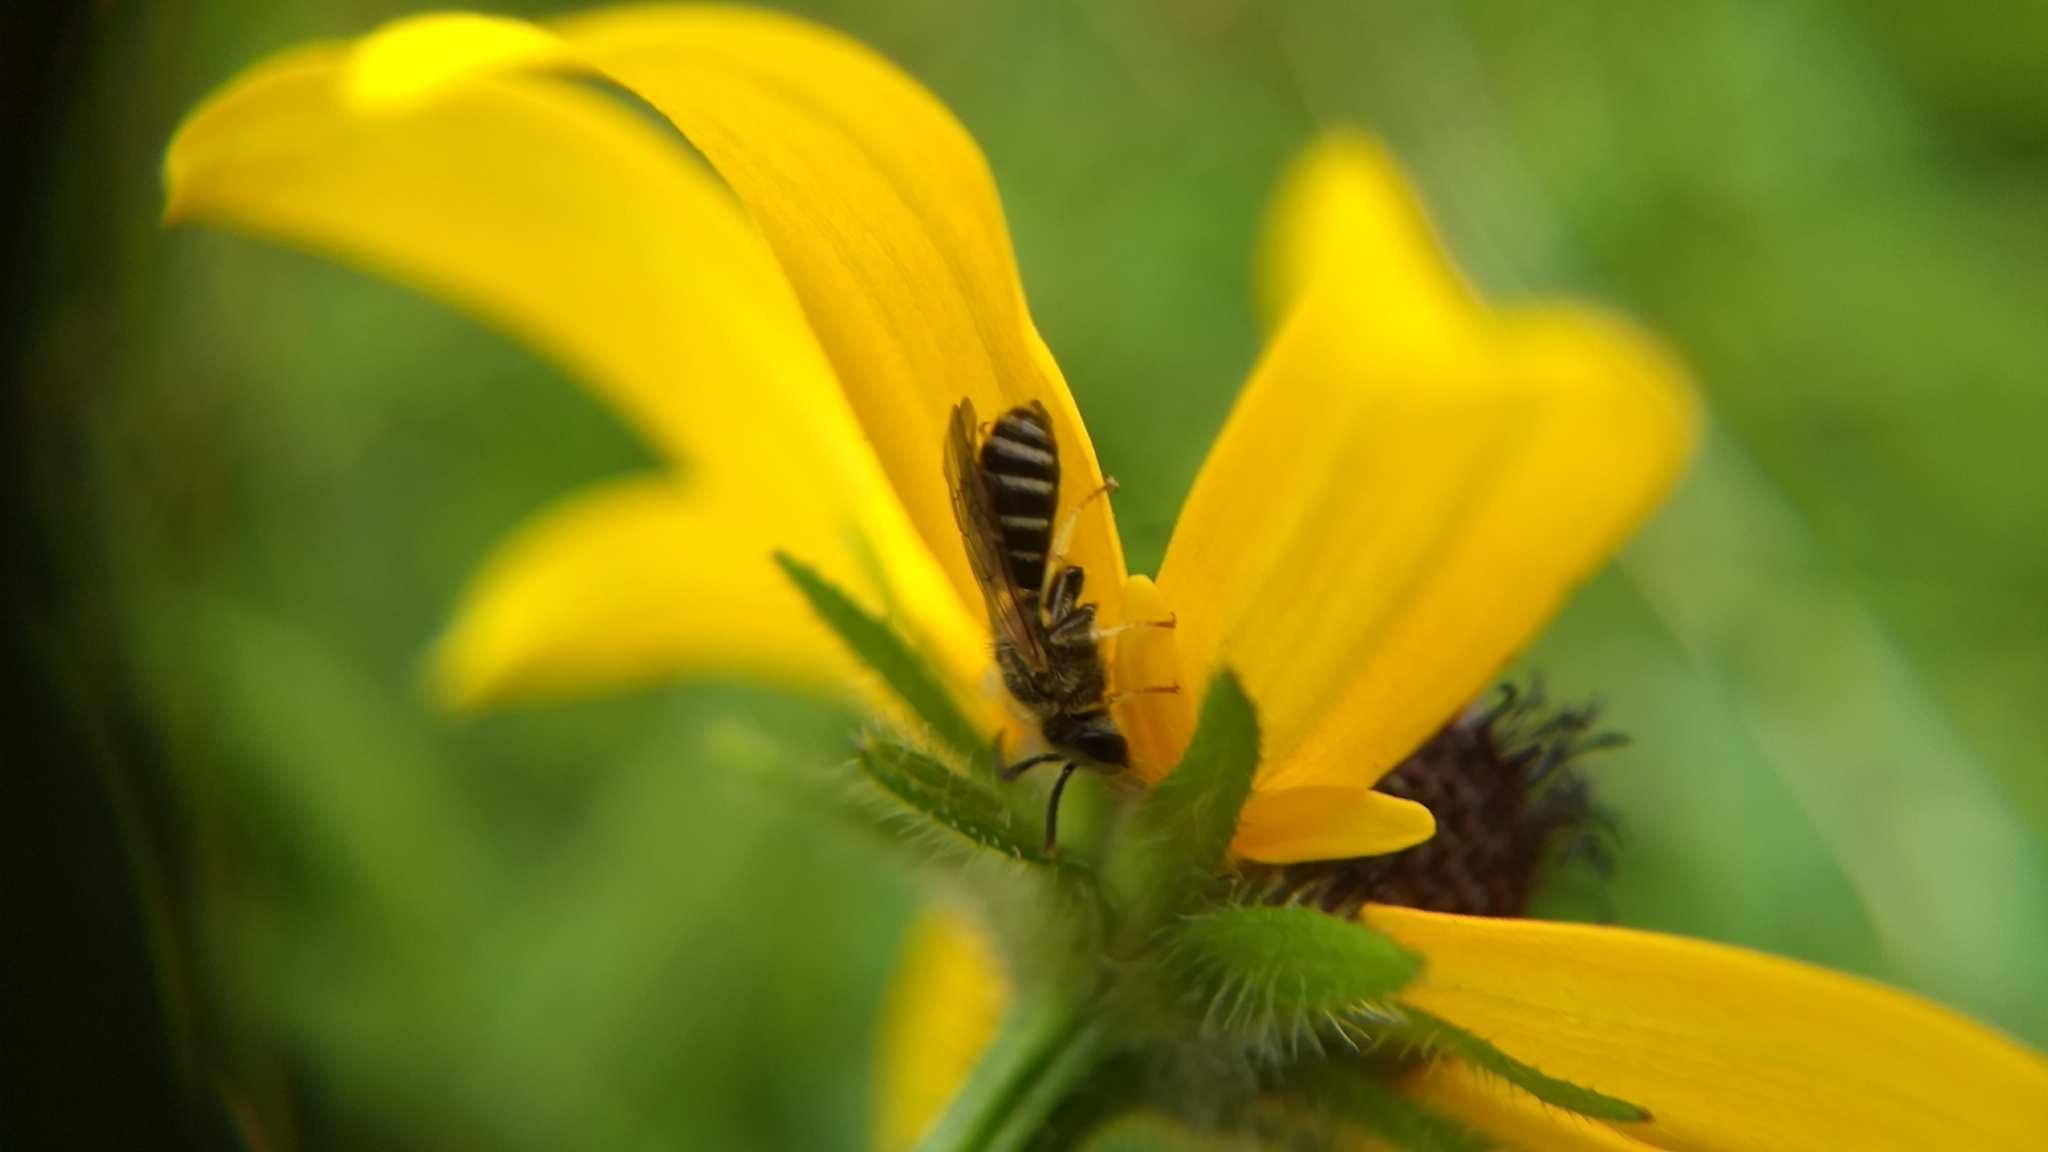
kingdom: Animalia
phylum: Arthropoda
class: Insecta
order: Hymenoptera
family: Halictidae
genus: Halictus
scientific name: Halictus ligatus
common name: Ligated furrow bee
